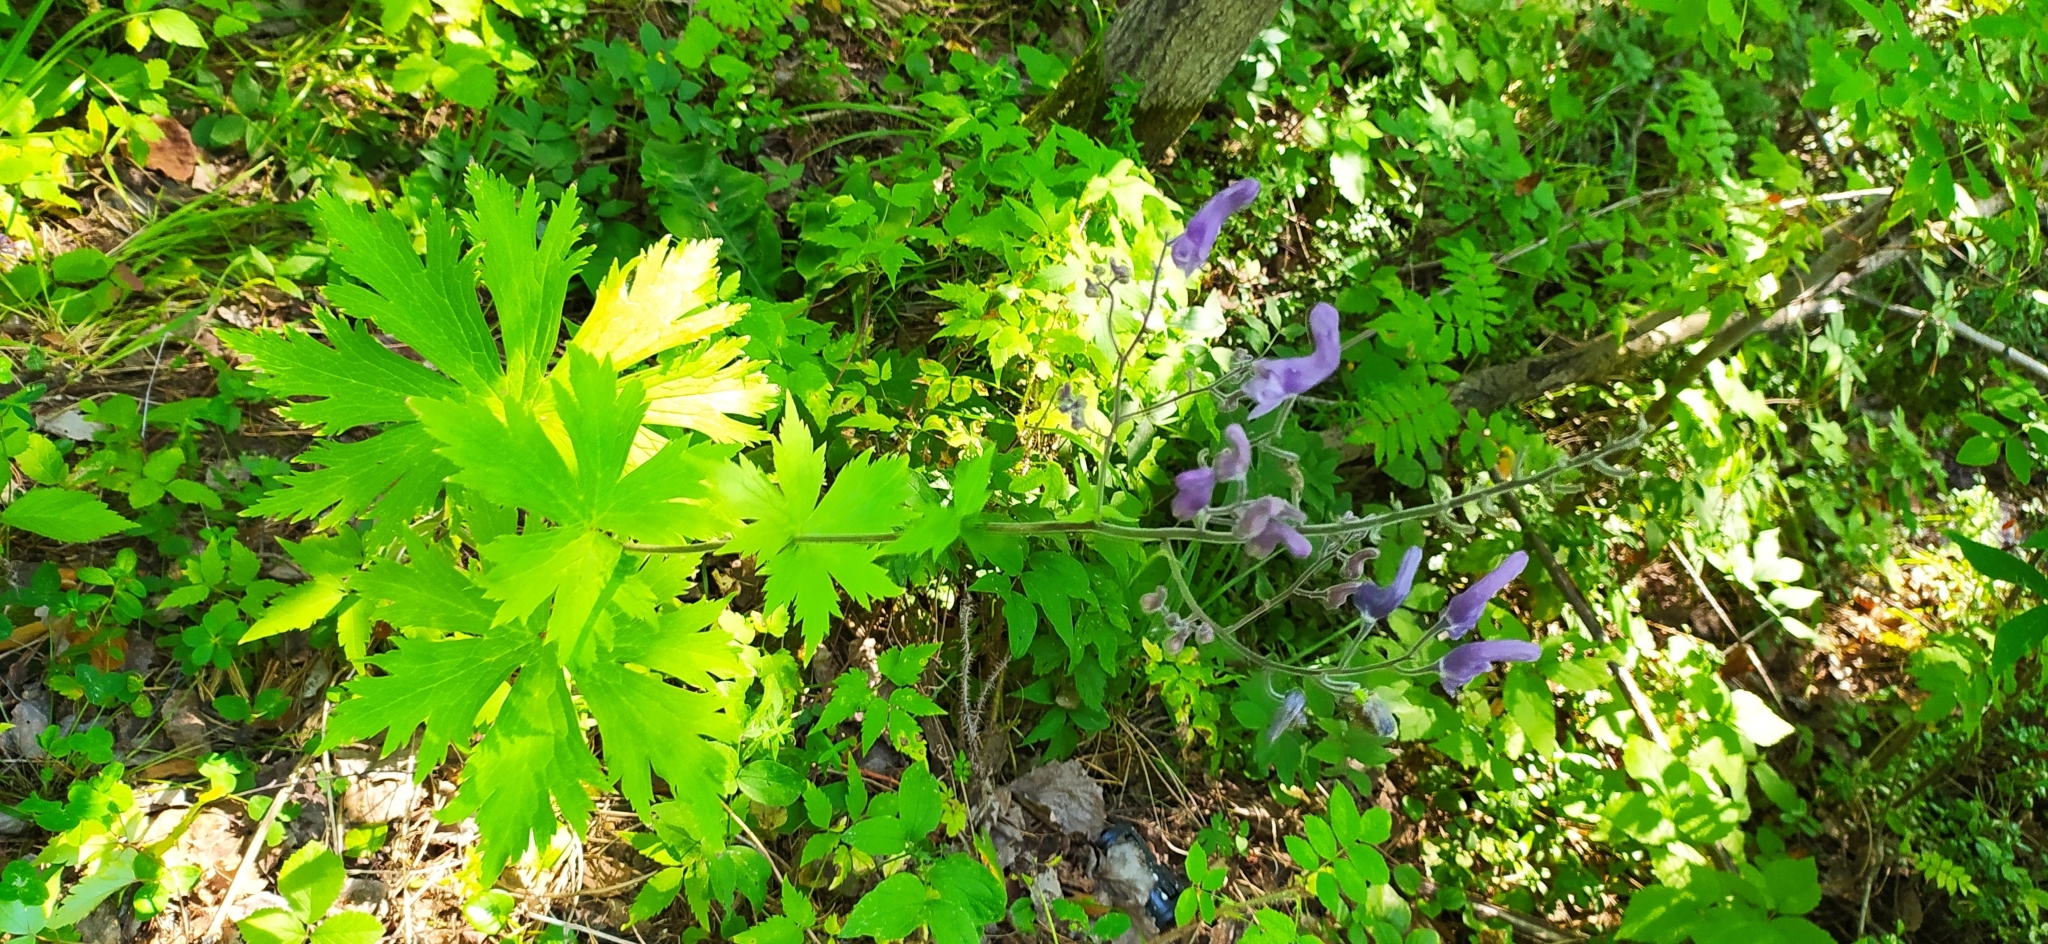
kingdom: Plantae
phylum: Tracheophyta
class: Magnoliopsida
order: Ranunculales
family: Ranunculaceae
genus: Aconitum
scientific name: Aconitum septentrionale
